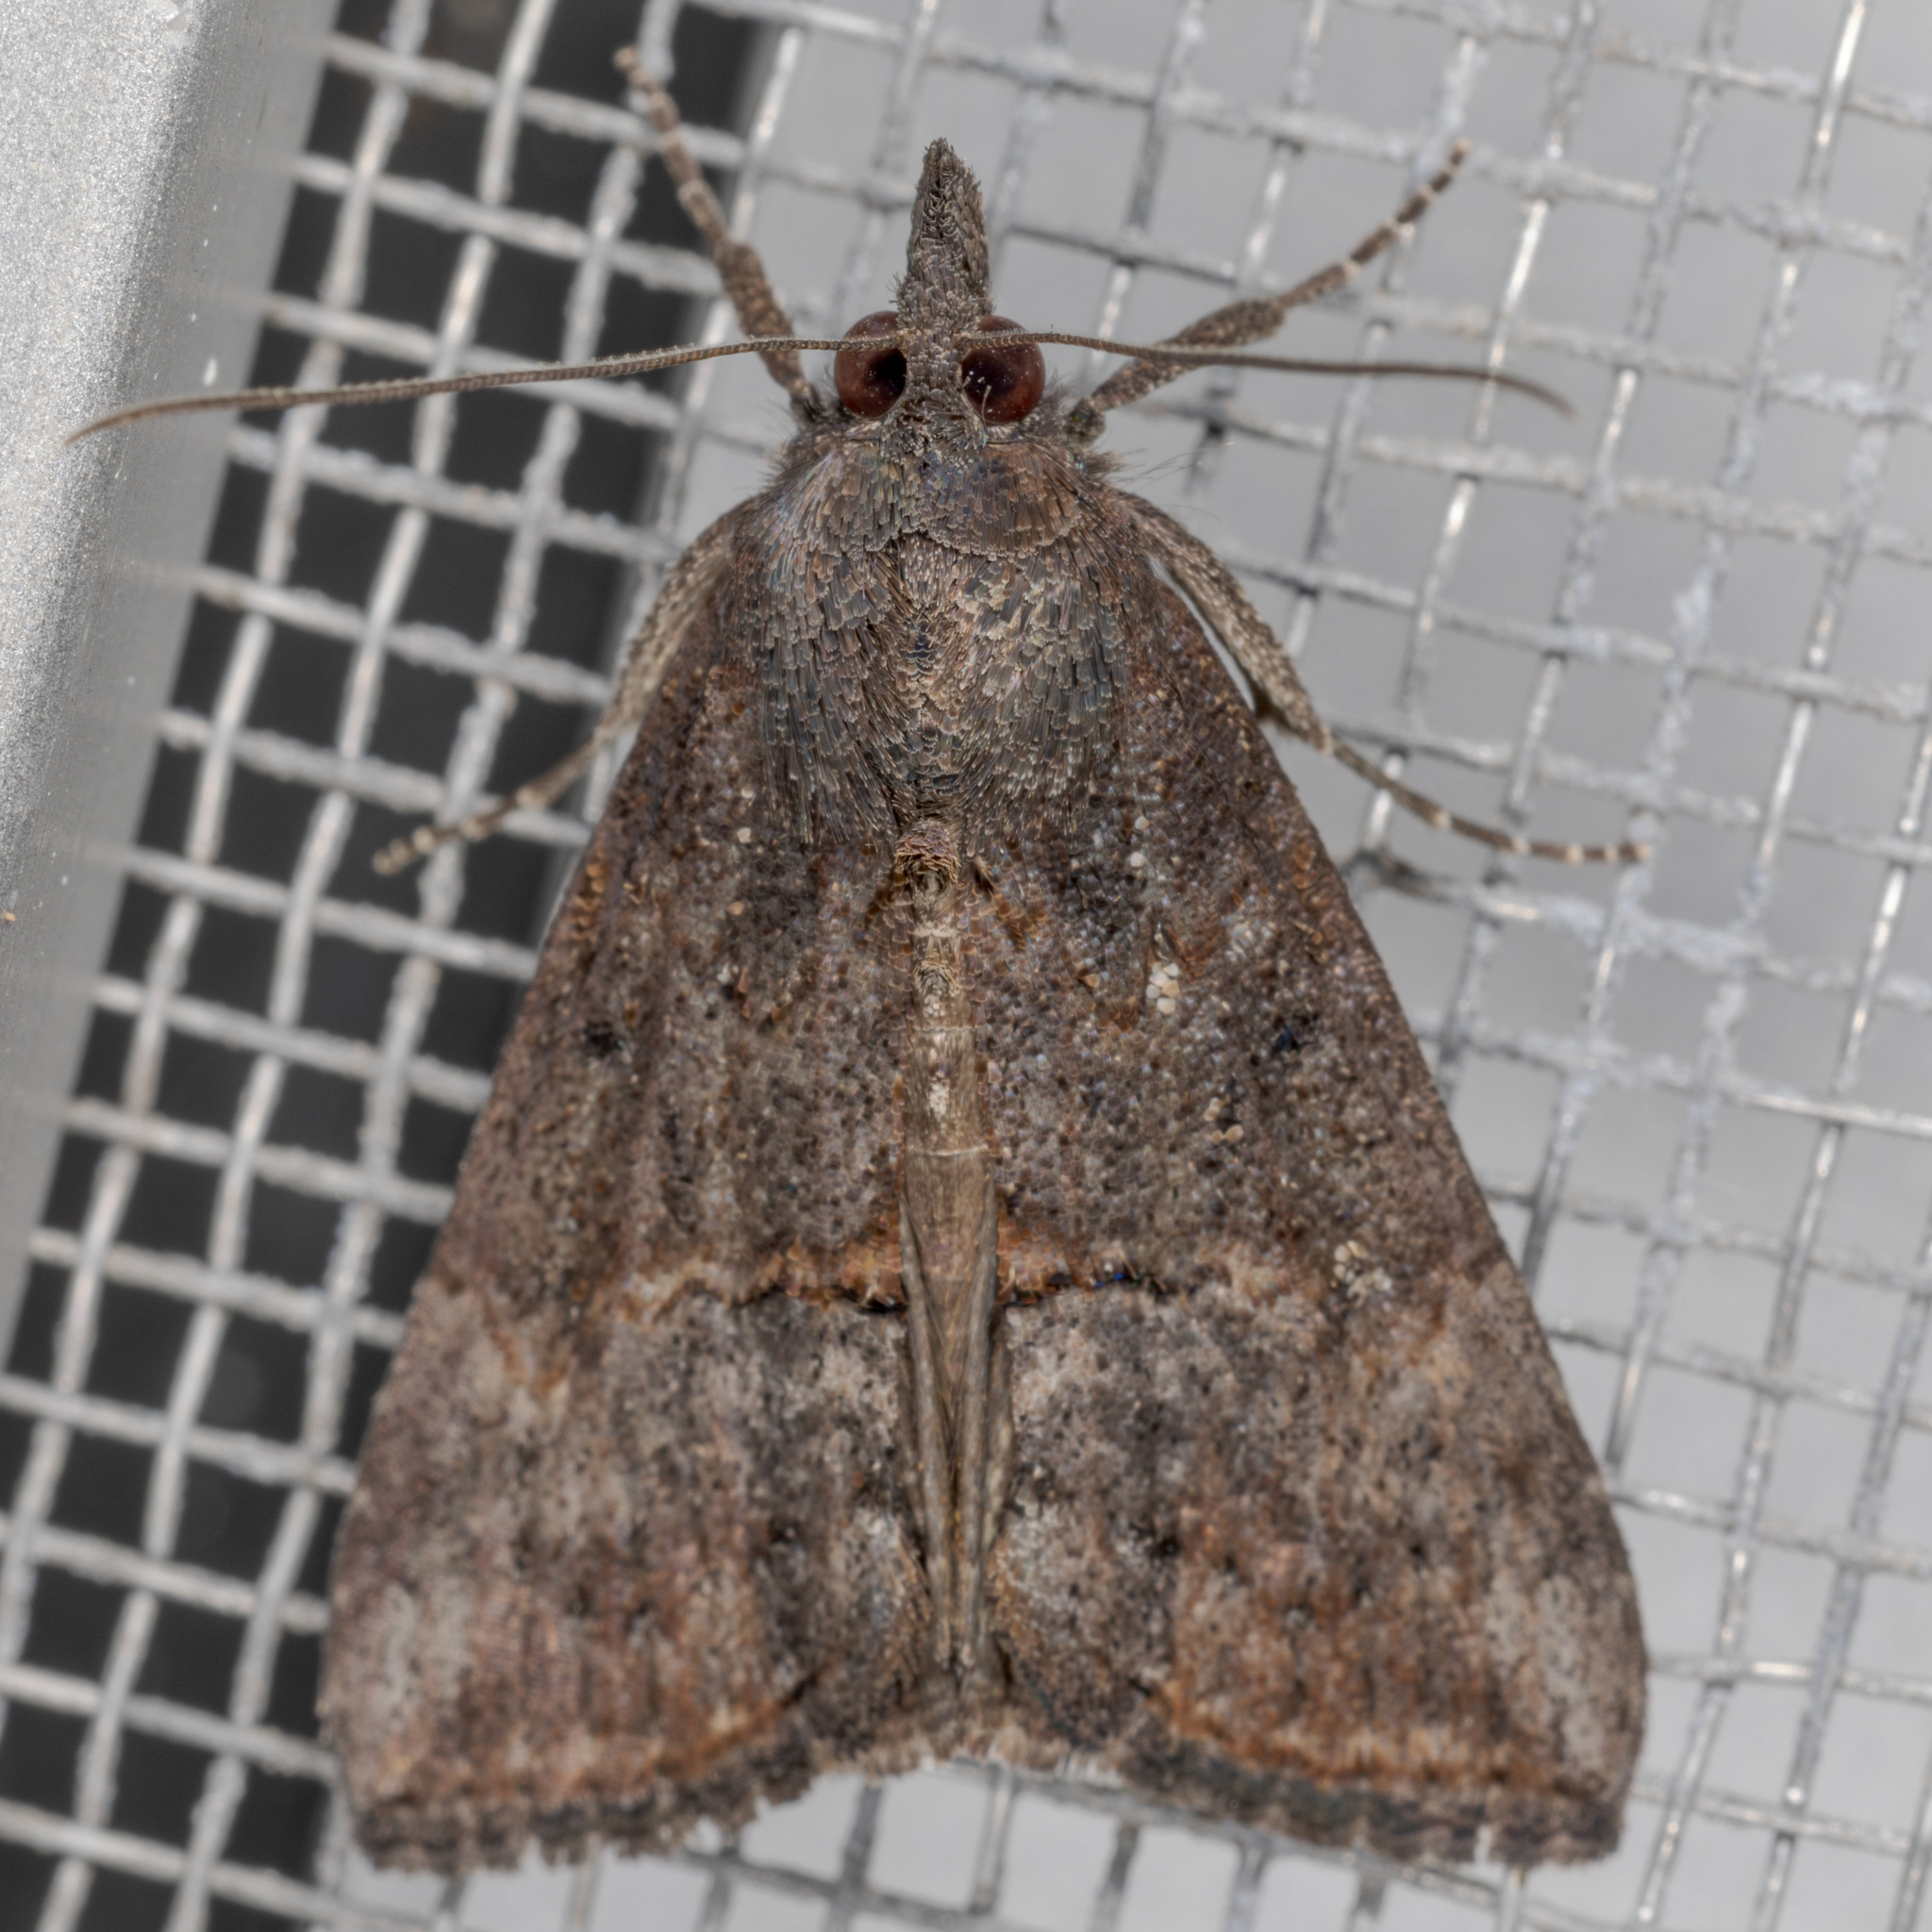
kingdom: Animalia
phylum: Arthropoda
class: Insecta
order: Lepidoptera
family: Erebidae
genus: Hypena
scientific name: Hypena scabra
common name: Green cloverworm
